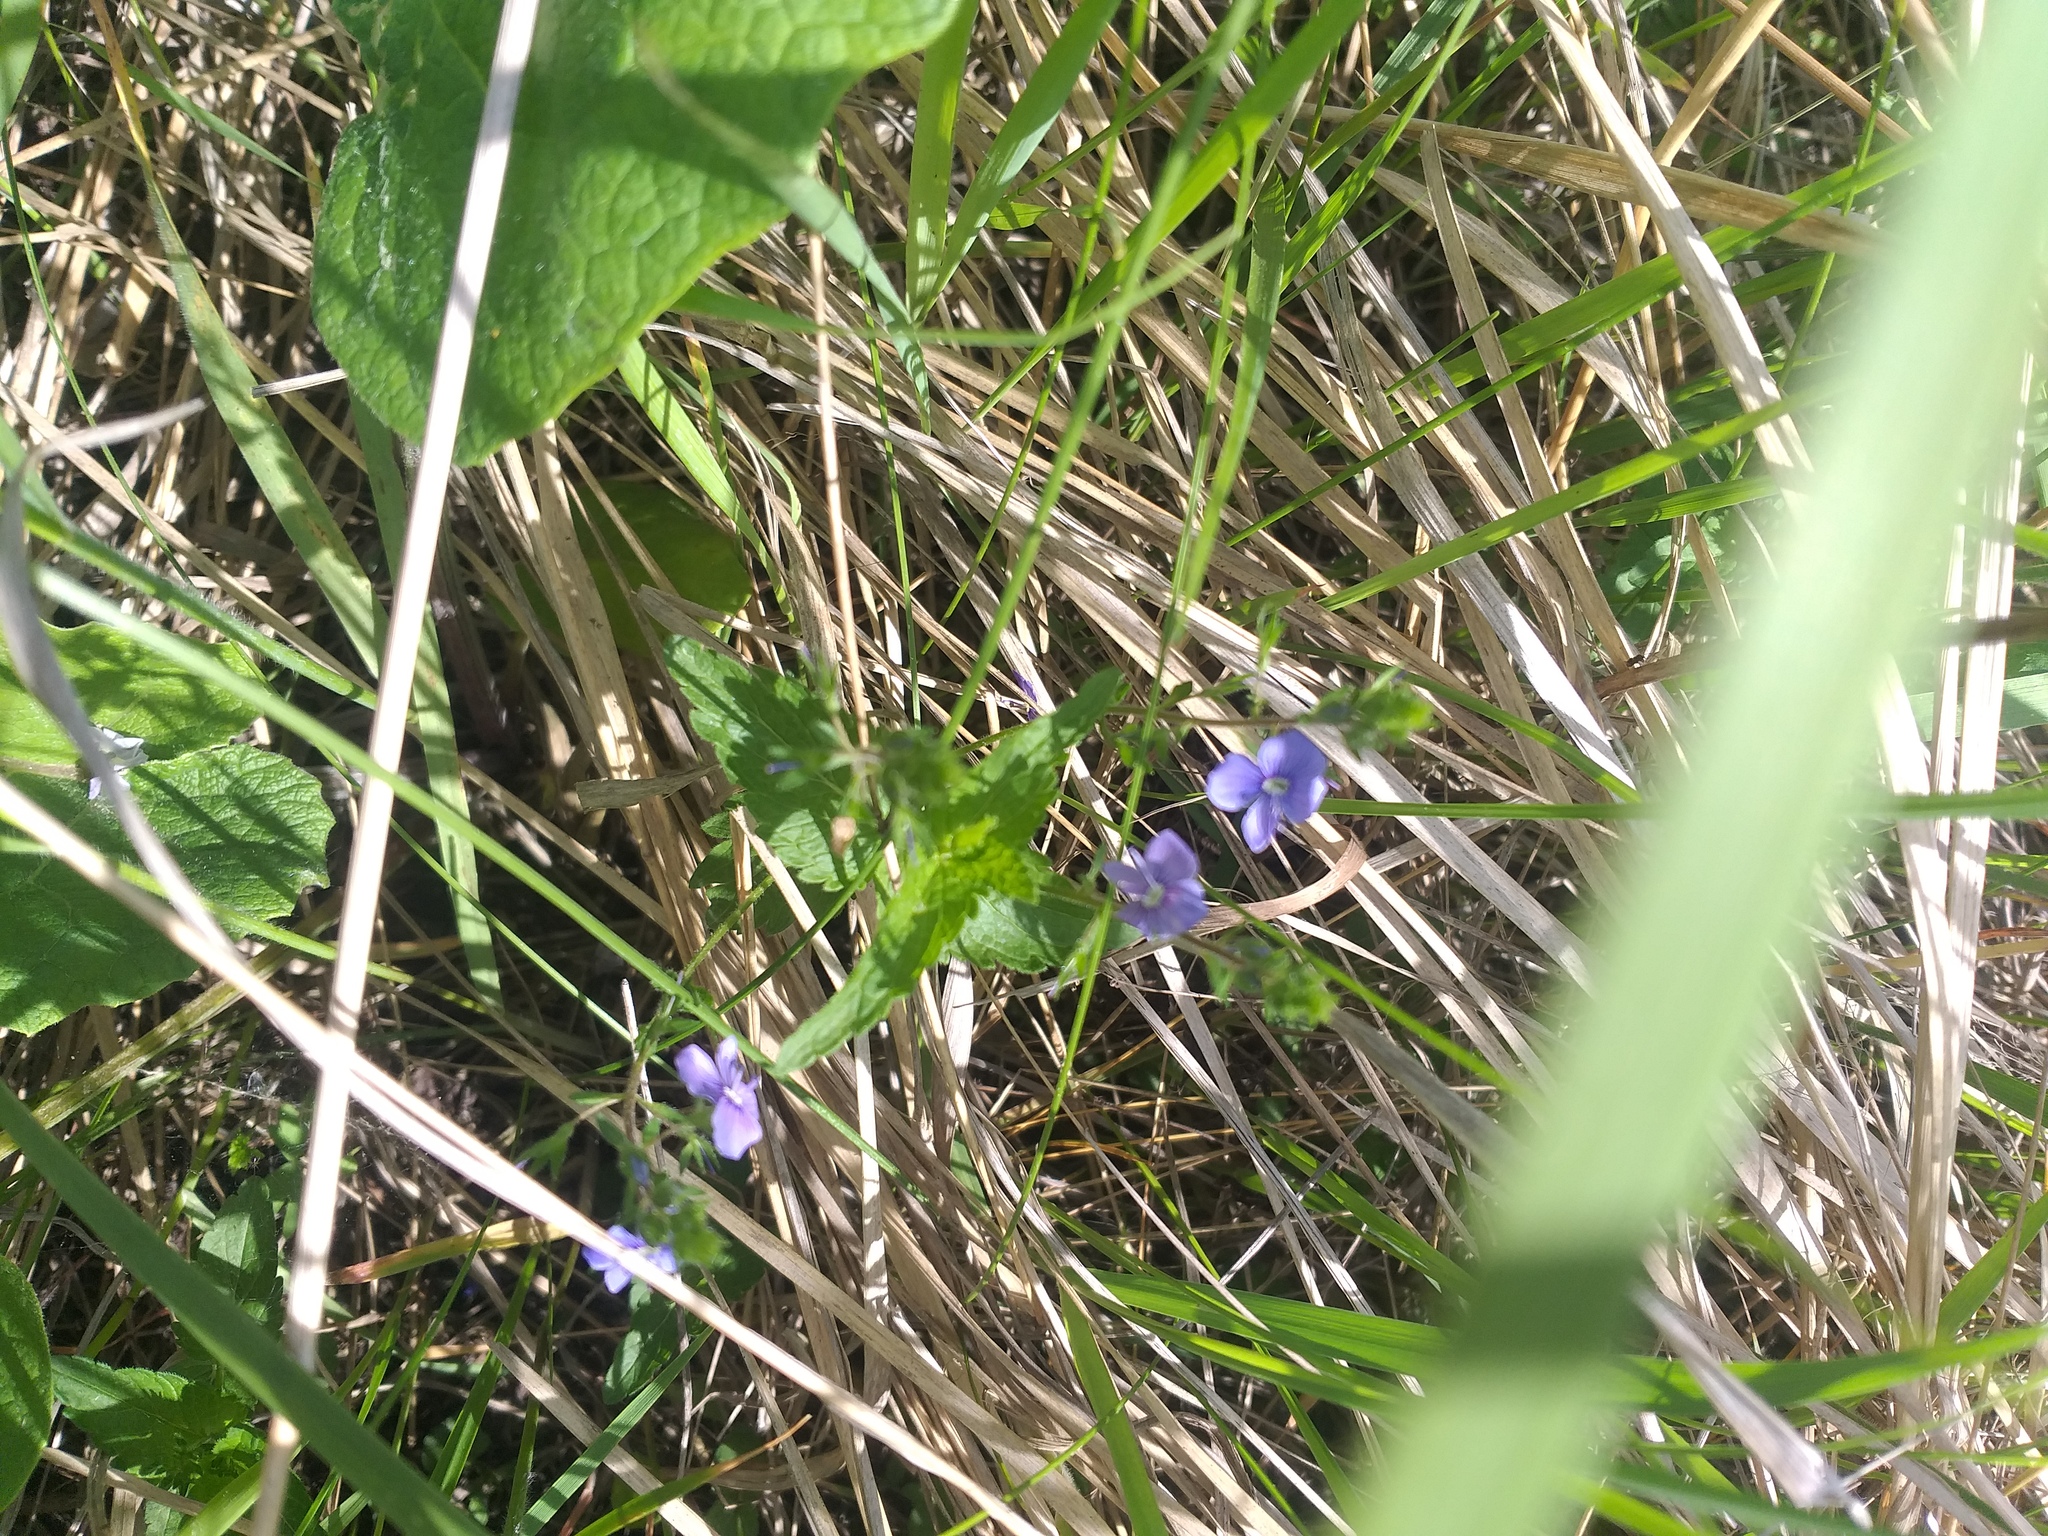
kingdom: Plantae
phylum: Tracheophyta
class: Magnoliopsida
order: Lamiales
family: Plantaginaceae
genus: Veronica
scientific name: Veronica chamaedrys
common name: Germander speedwell
